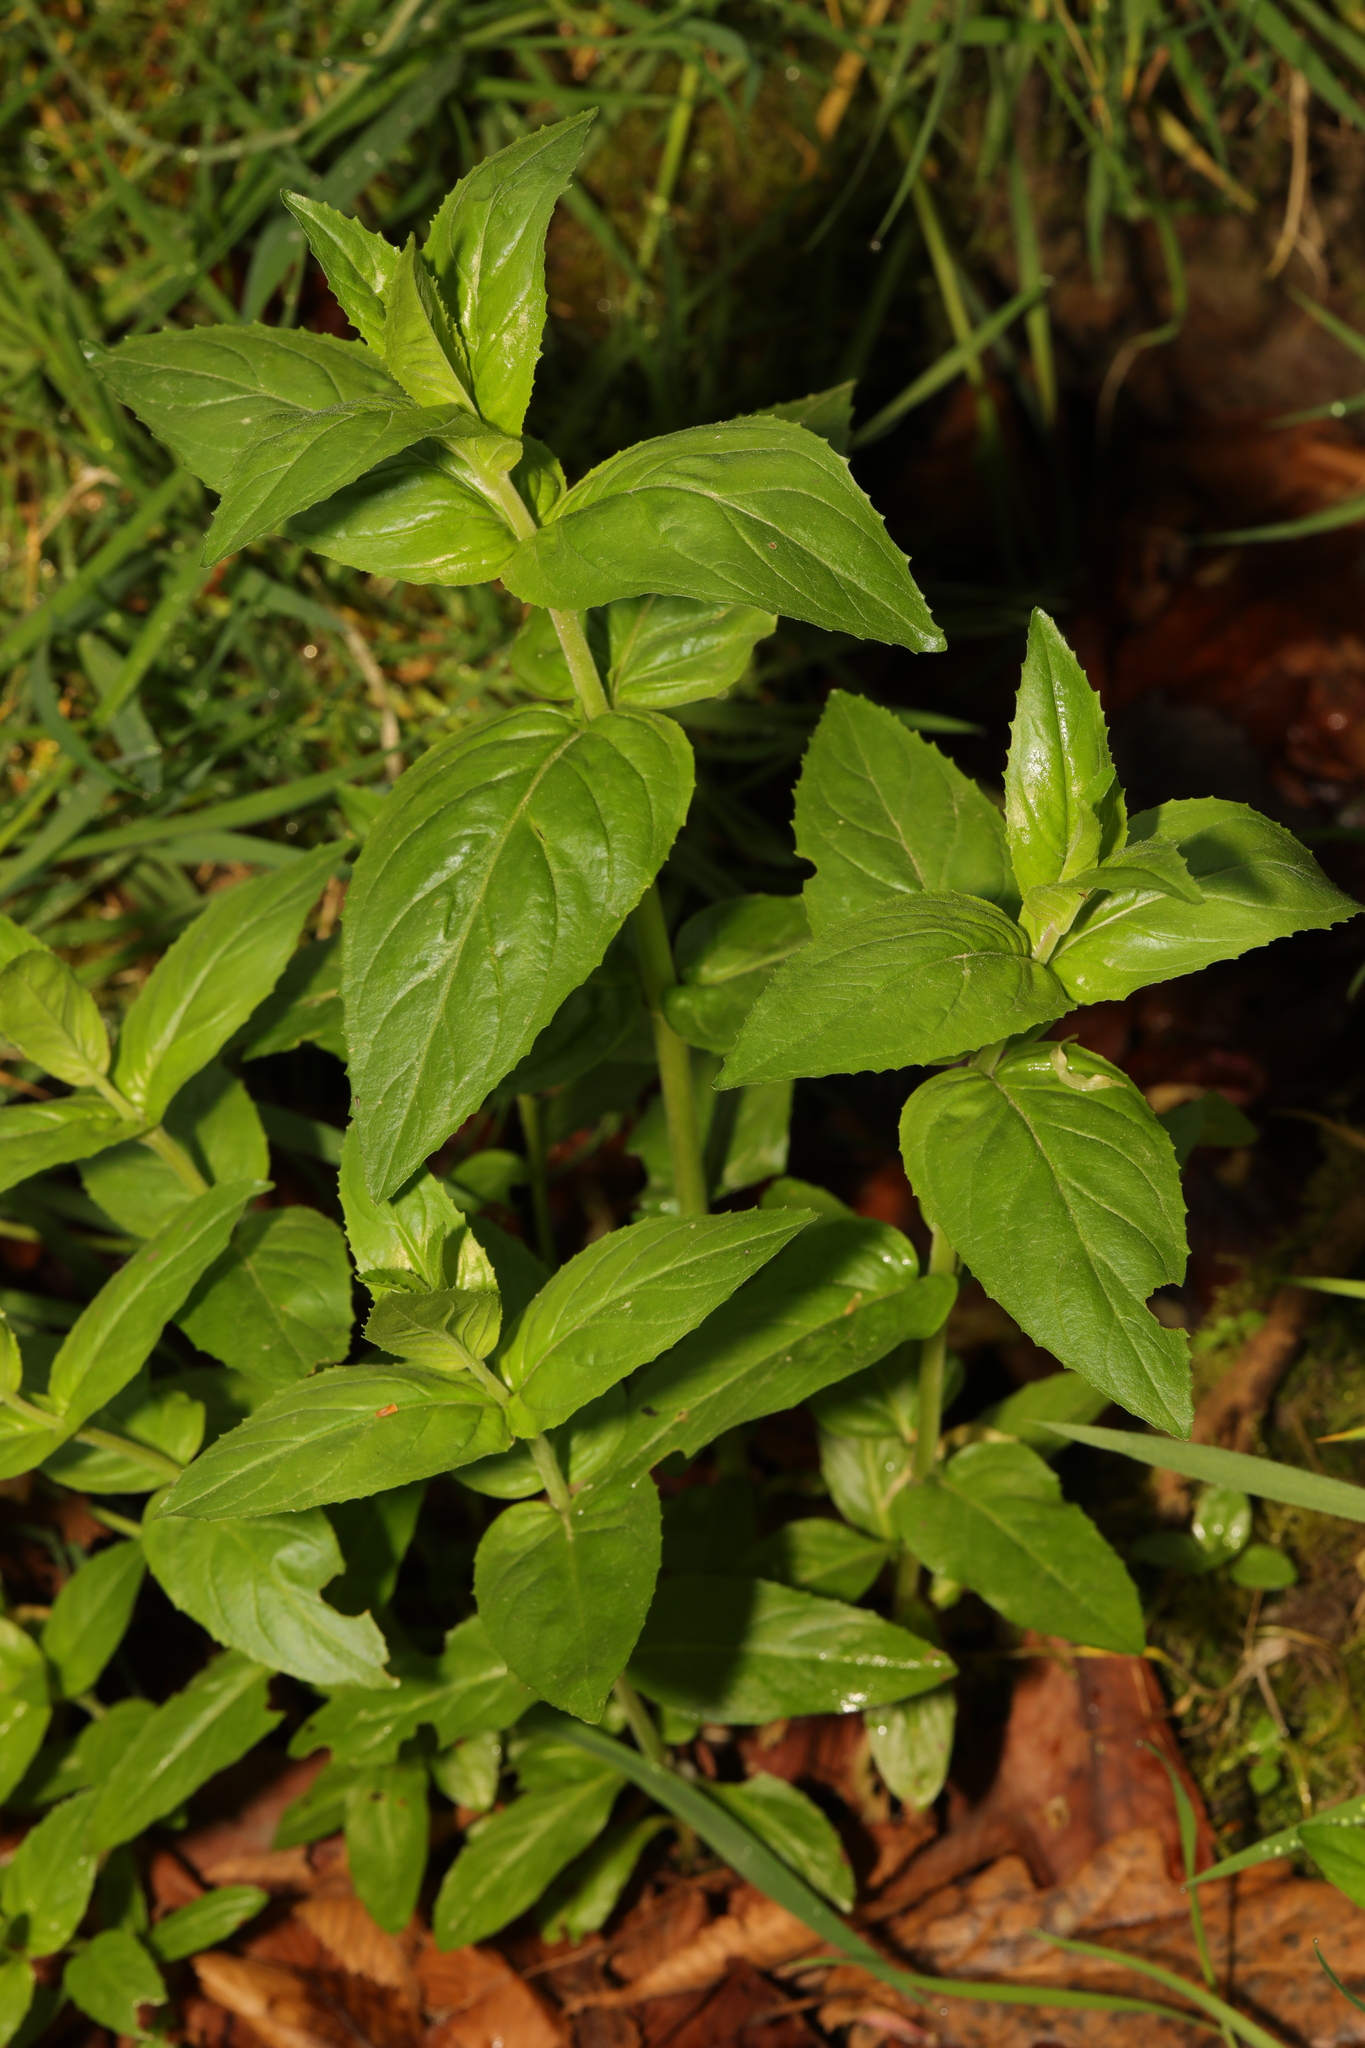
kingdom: Plantae
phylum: Tracheophyta
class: Magnoliopsida
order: Myrtales
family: Onagraceae
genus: Epilobium
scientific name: Epilobium montanum
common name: Broad-leaved willowherb
